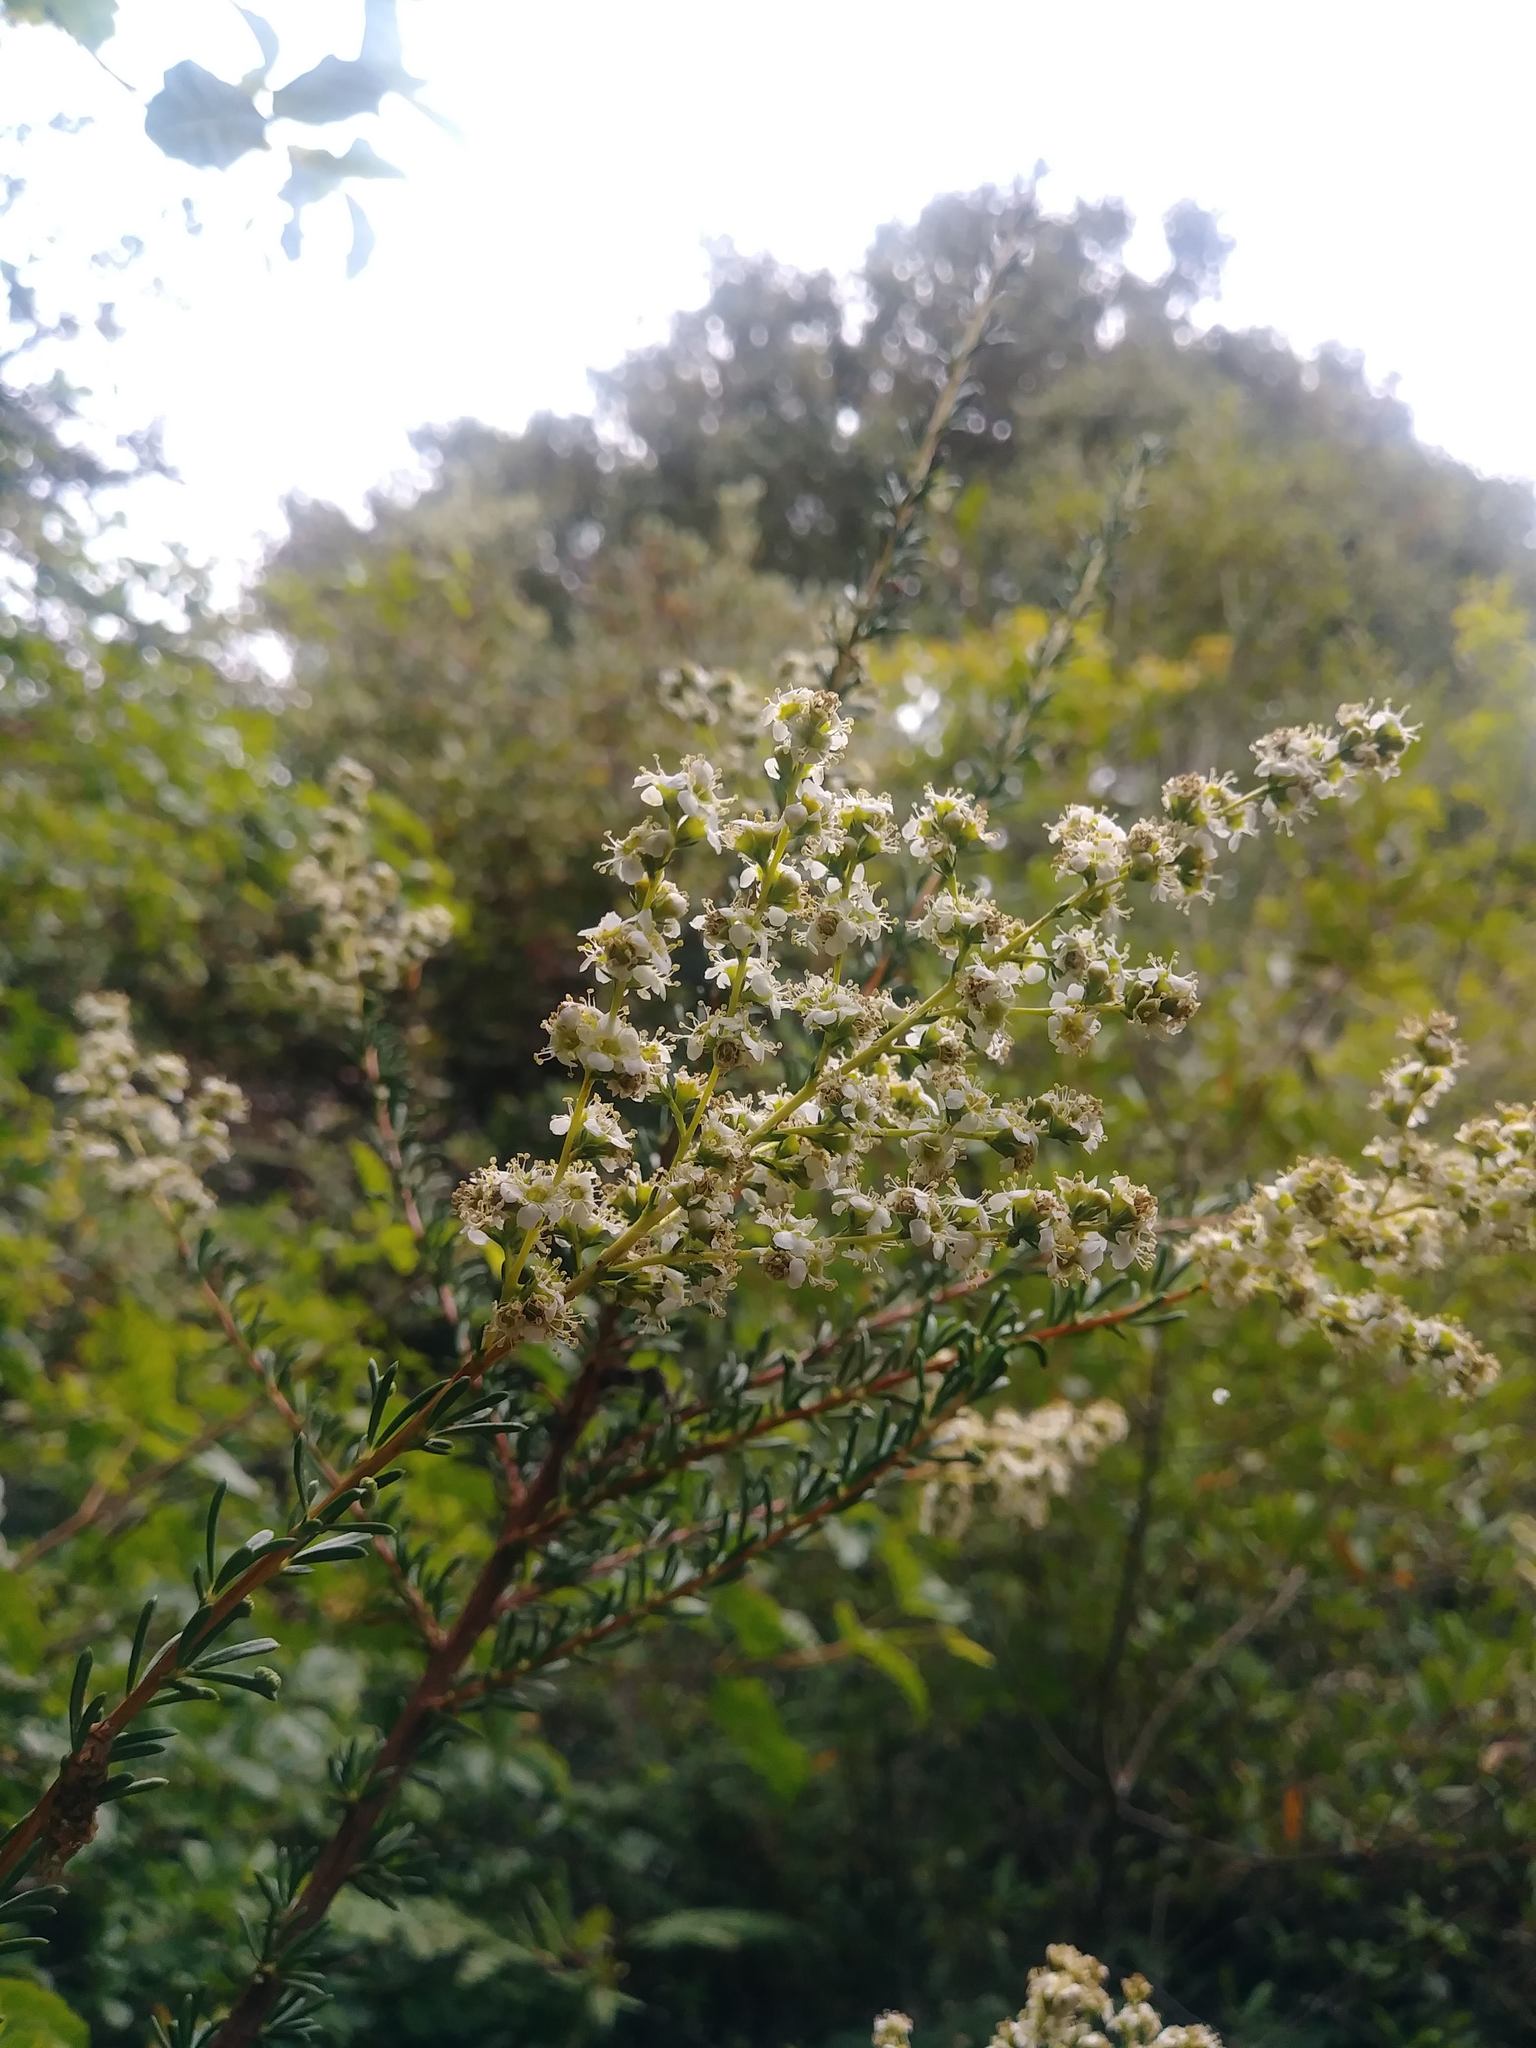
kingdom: Plantae
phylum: Tracheophyta
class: Magnoliopsida
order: Rosales
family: Rosaceae
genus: Adenostoma
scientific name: Adenostoma fasciculatum
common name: Chamise
